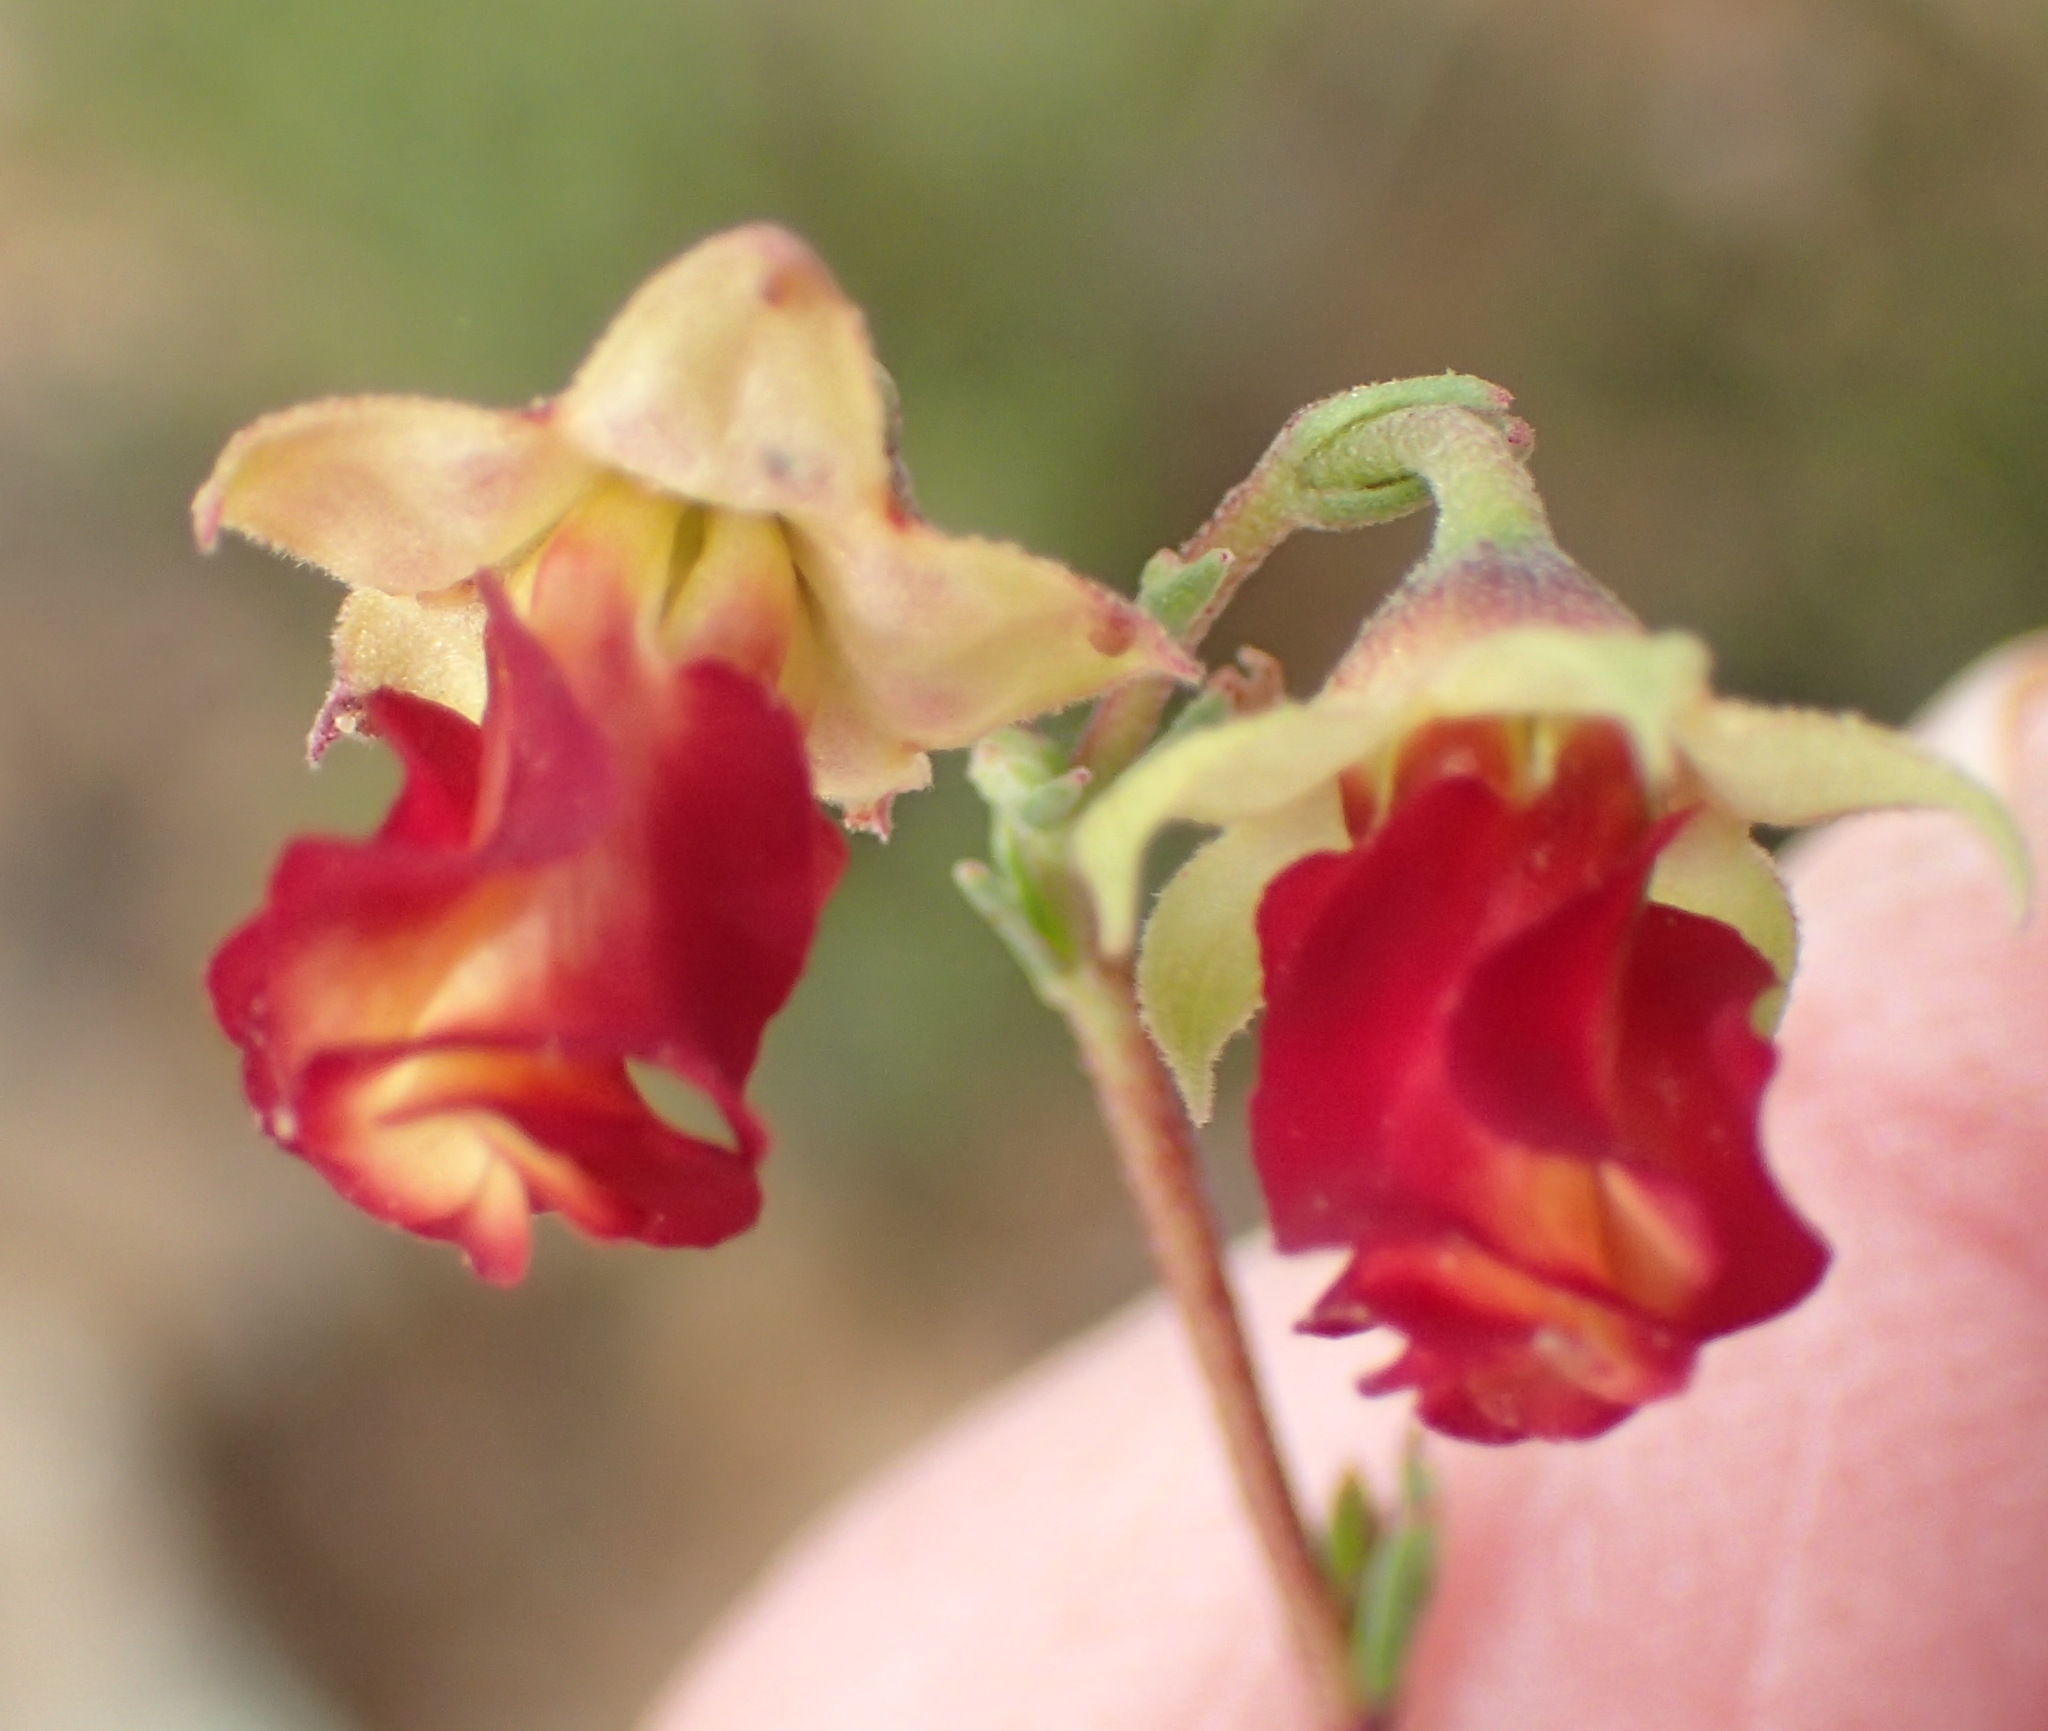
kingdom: Plantae
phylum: Tracheophyta
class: Magnoliopsida
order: Malvales
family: Malvaceae
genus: Hermannia
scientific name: Hermannia filifolia
